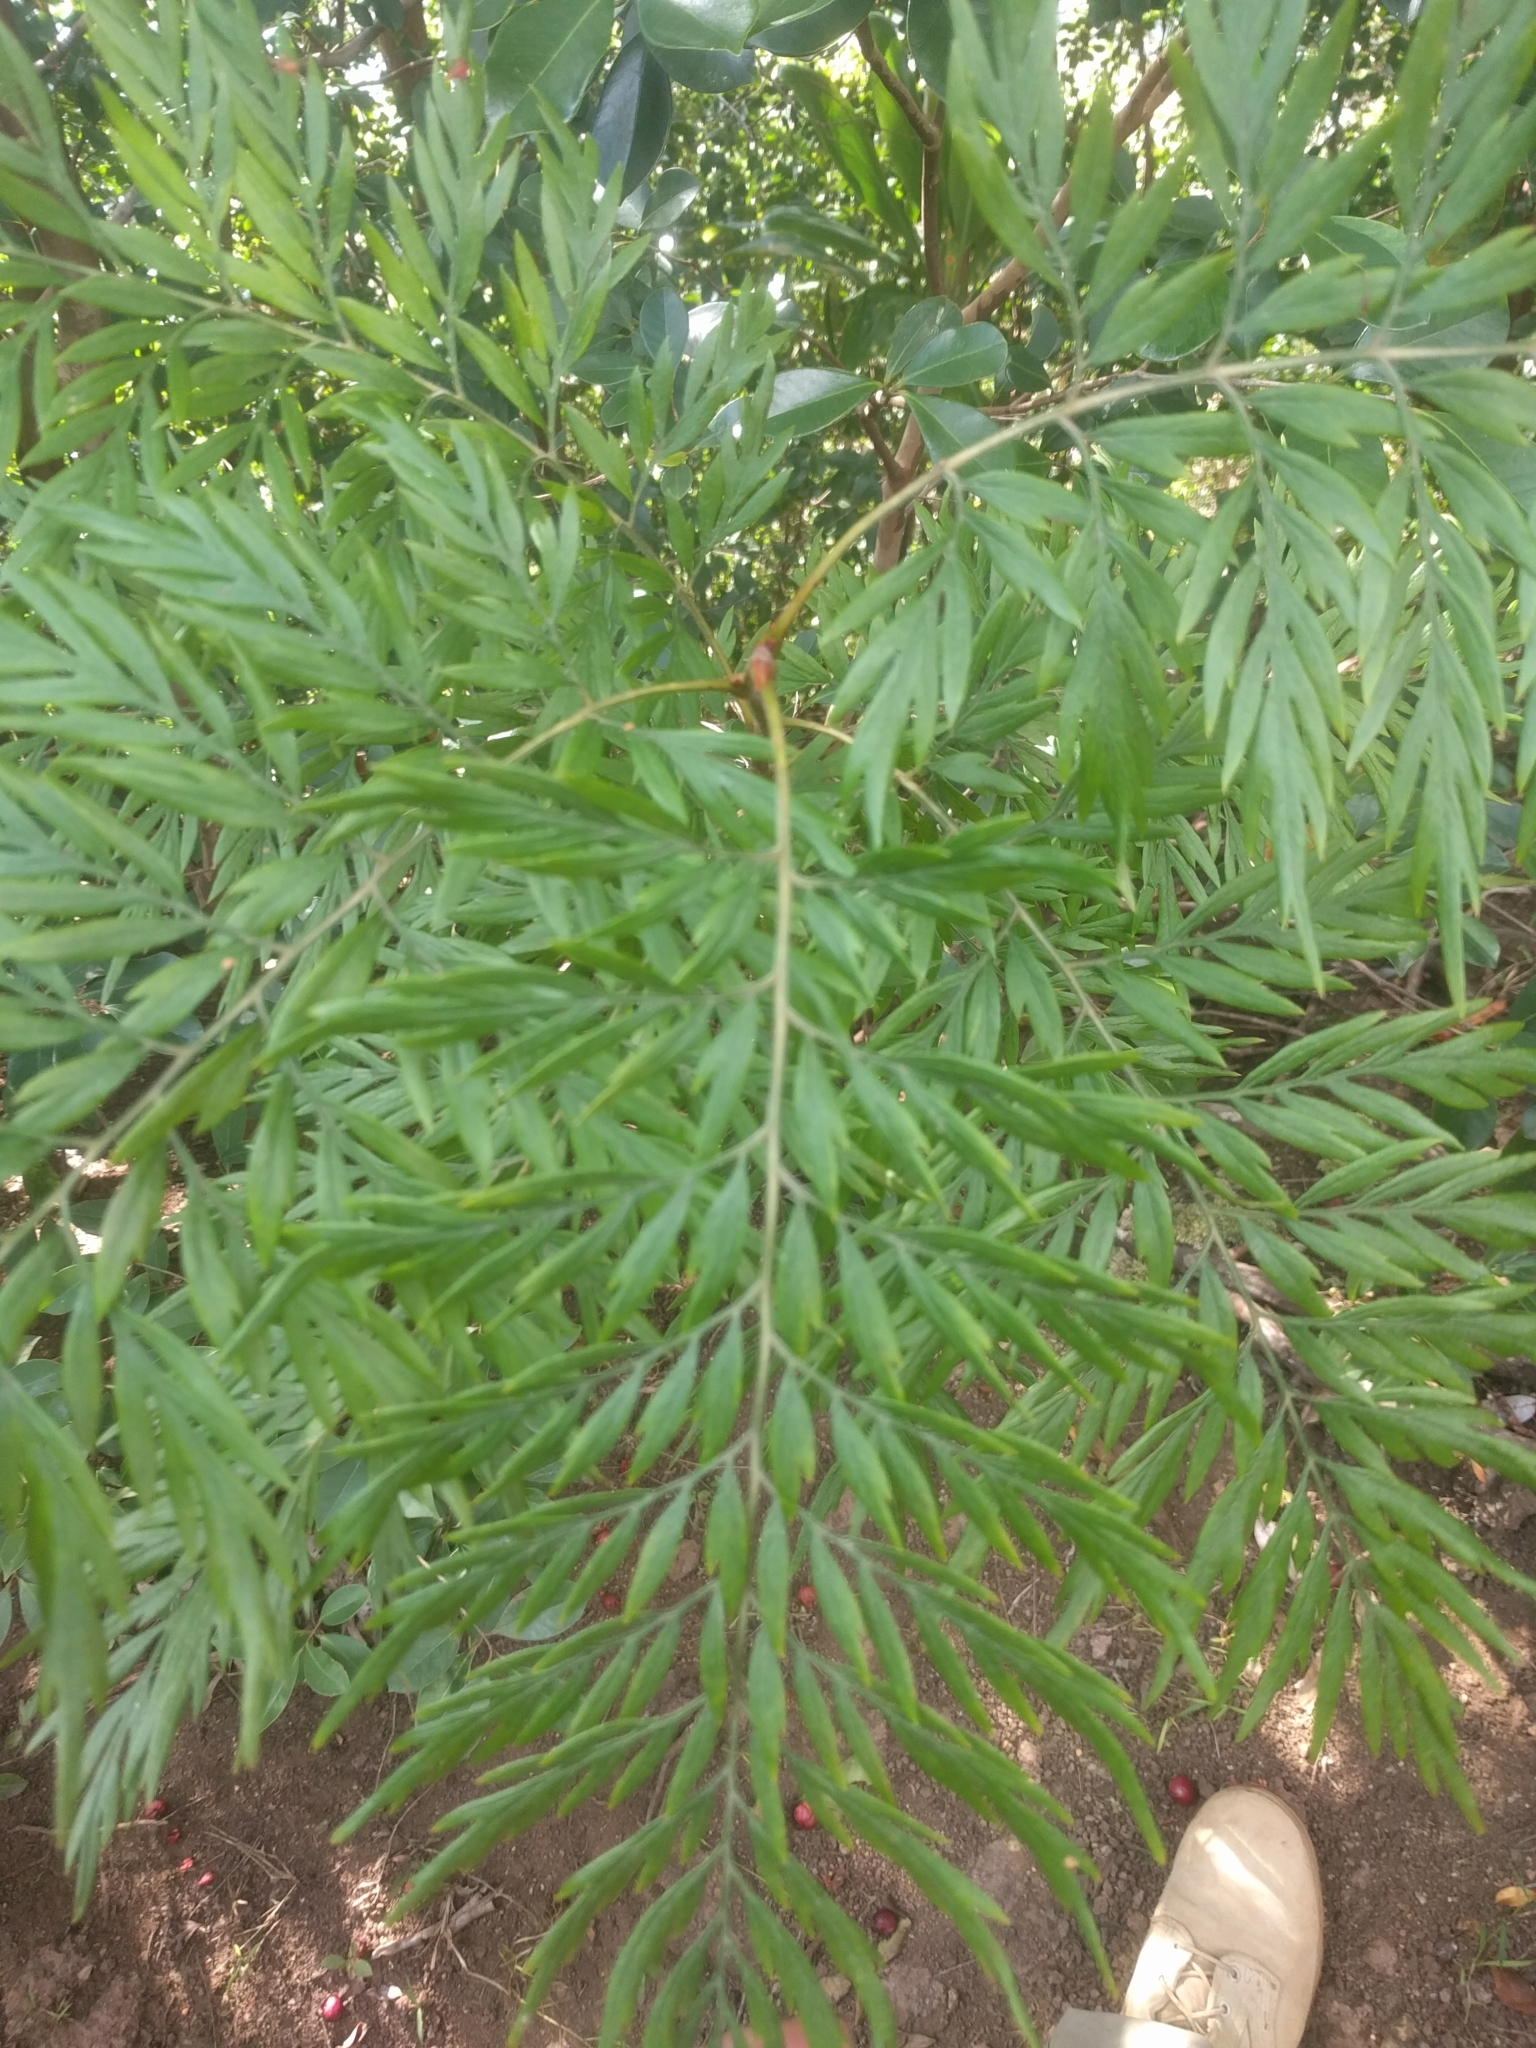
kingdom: Plantae
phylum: Tracheophyta
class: Magnoliopsida
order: Proteales
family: Proteaceae
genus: Grevillea
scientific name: Grevillea robusta
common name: Silkoak
